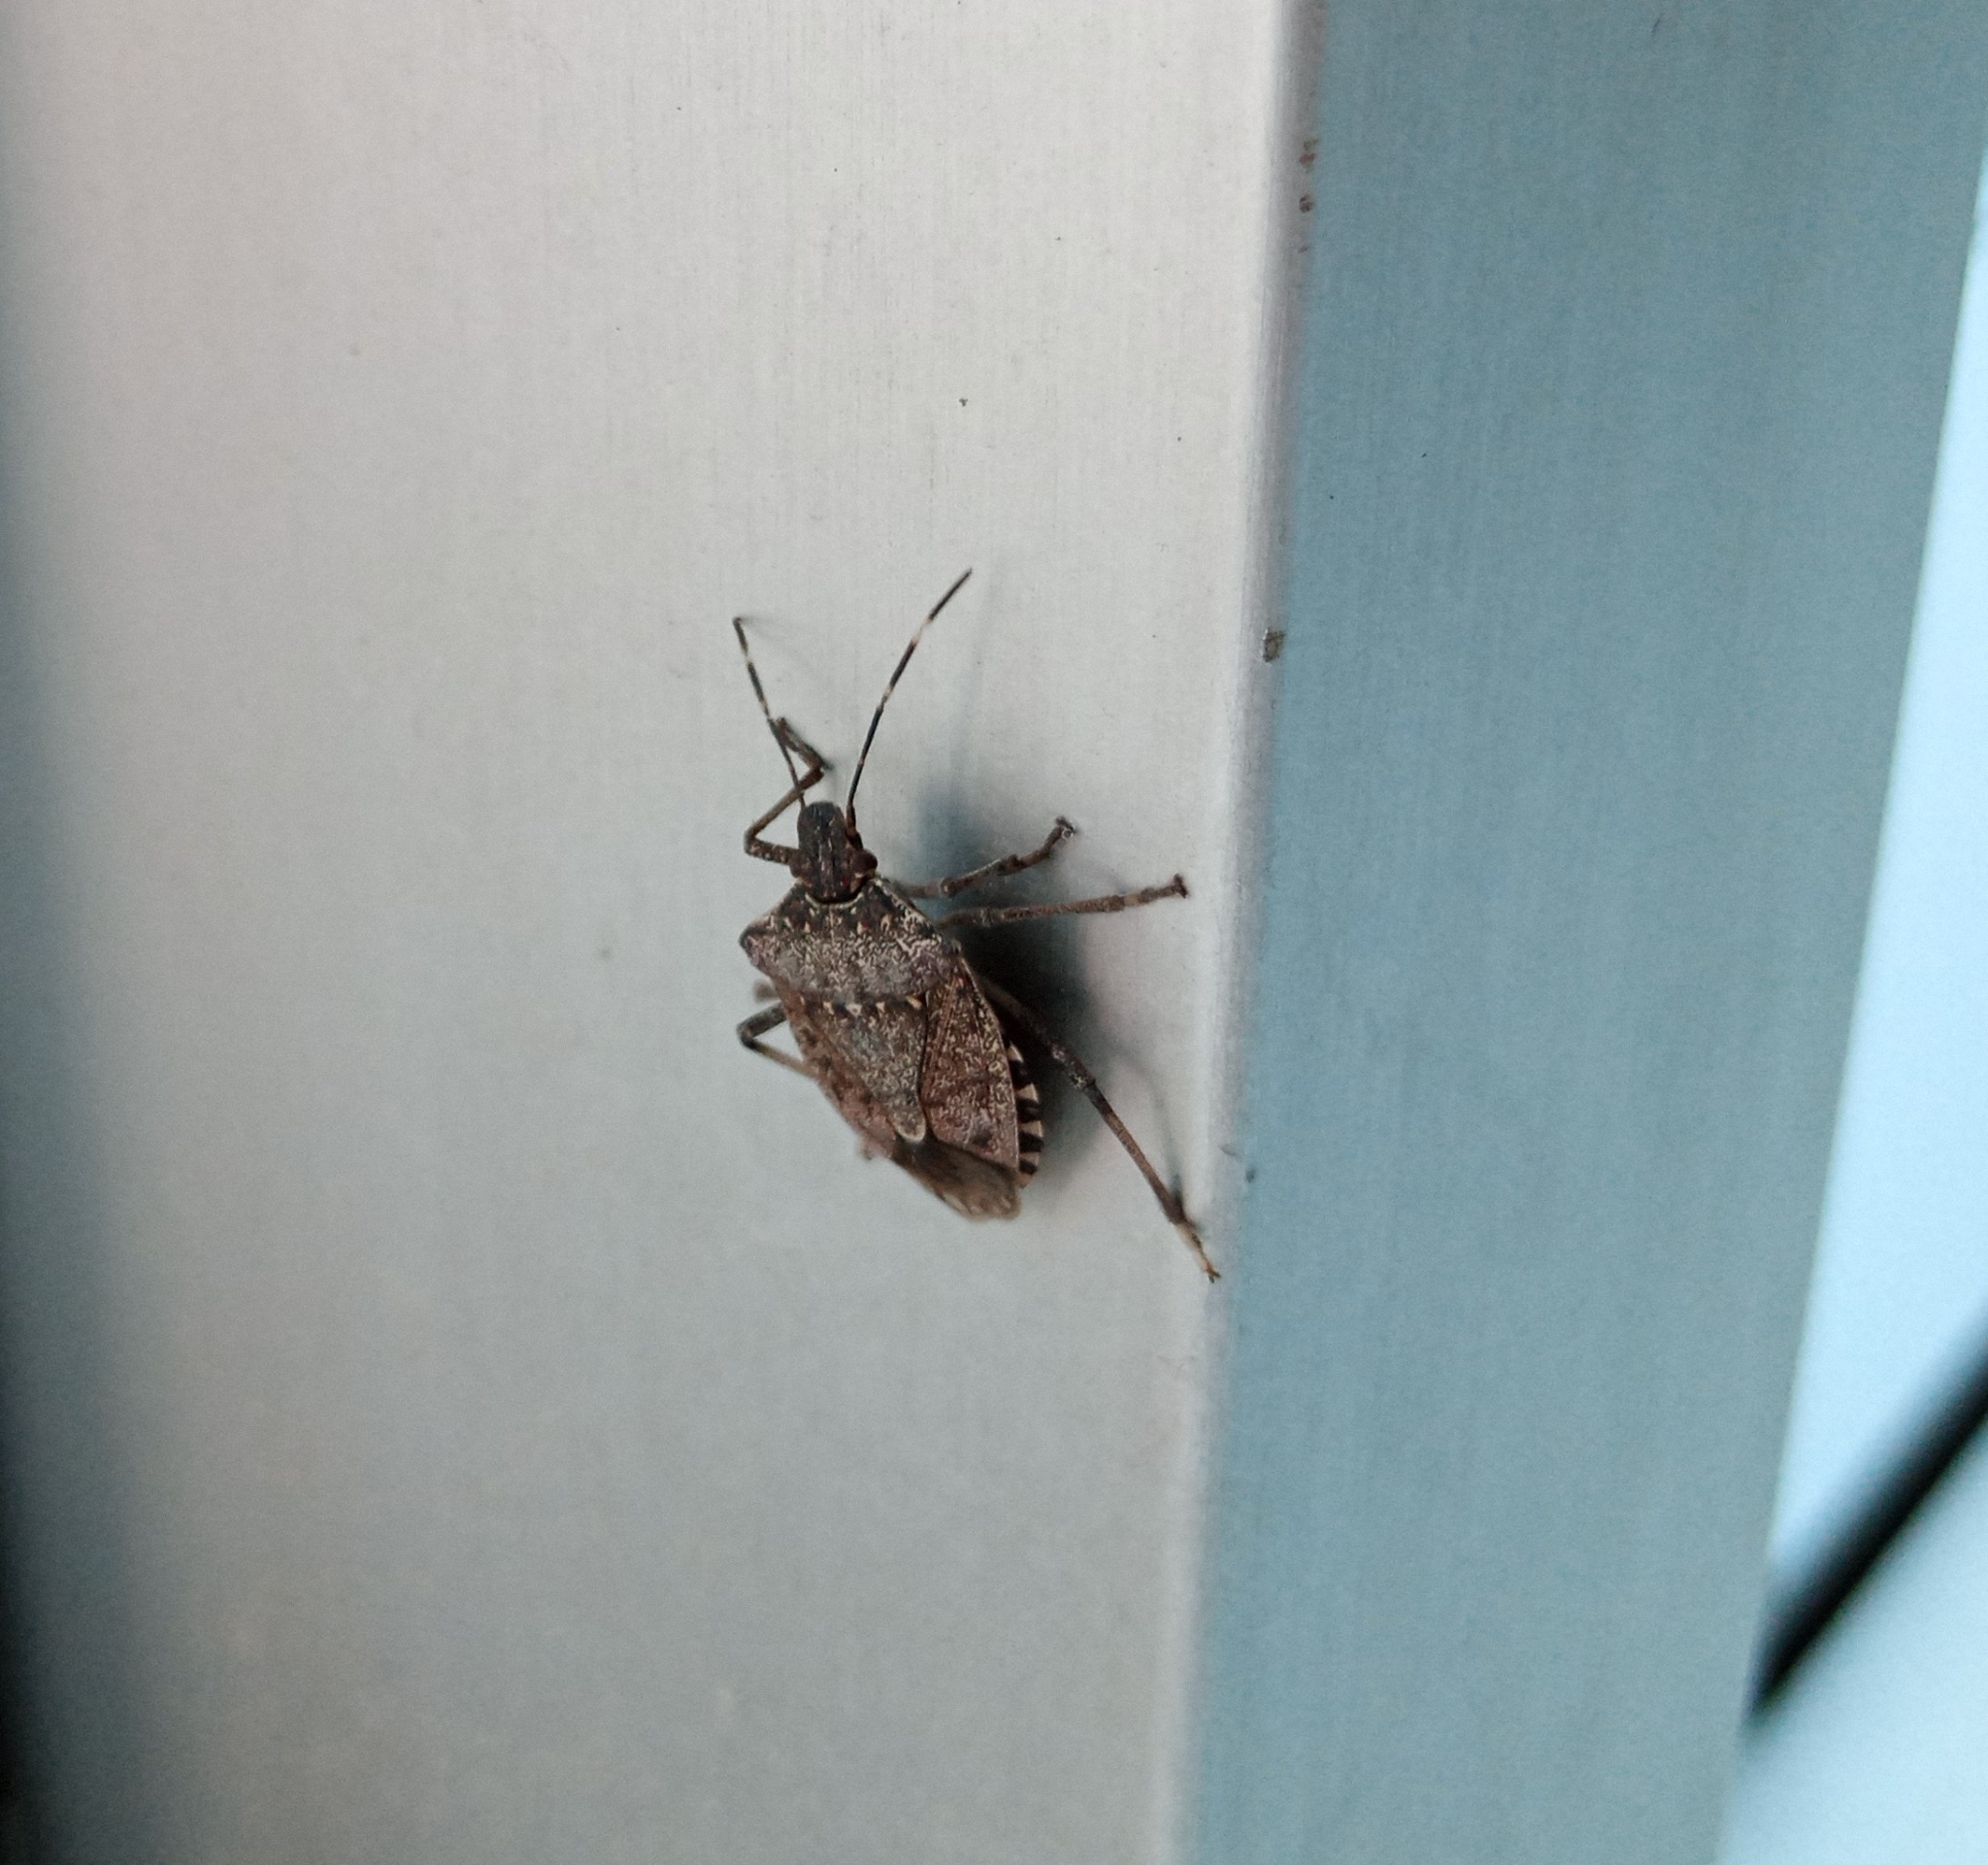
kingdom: Animalia
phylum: Arthropoda
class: Insecta
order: Hemiptera
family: Pentatomidae
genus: Halyomorpha
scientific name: Halyomorpha halys
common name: Brown marmorated stink bug
